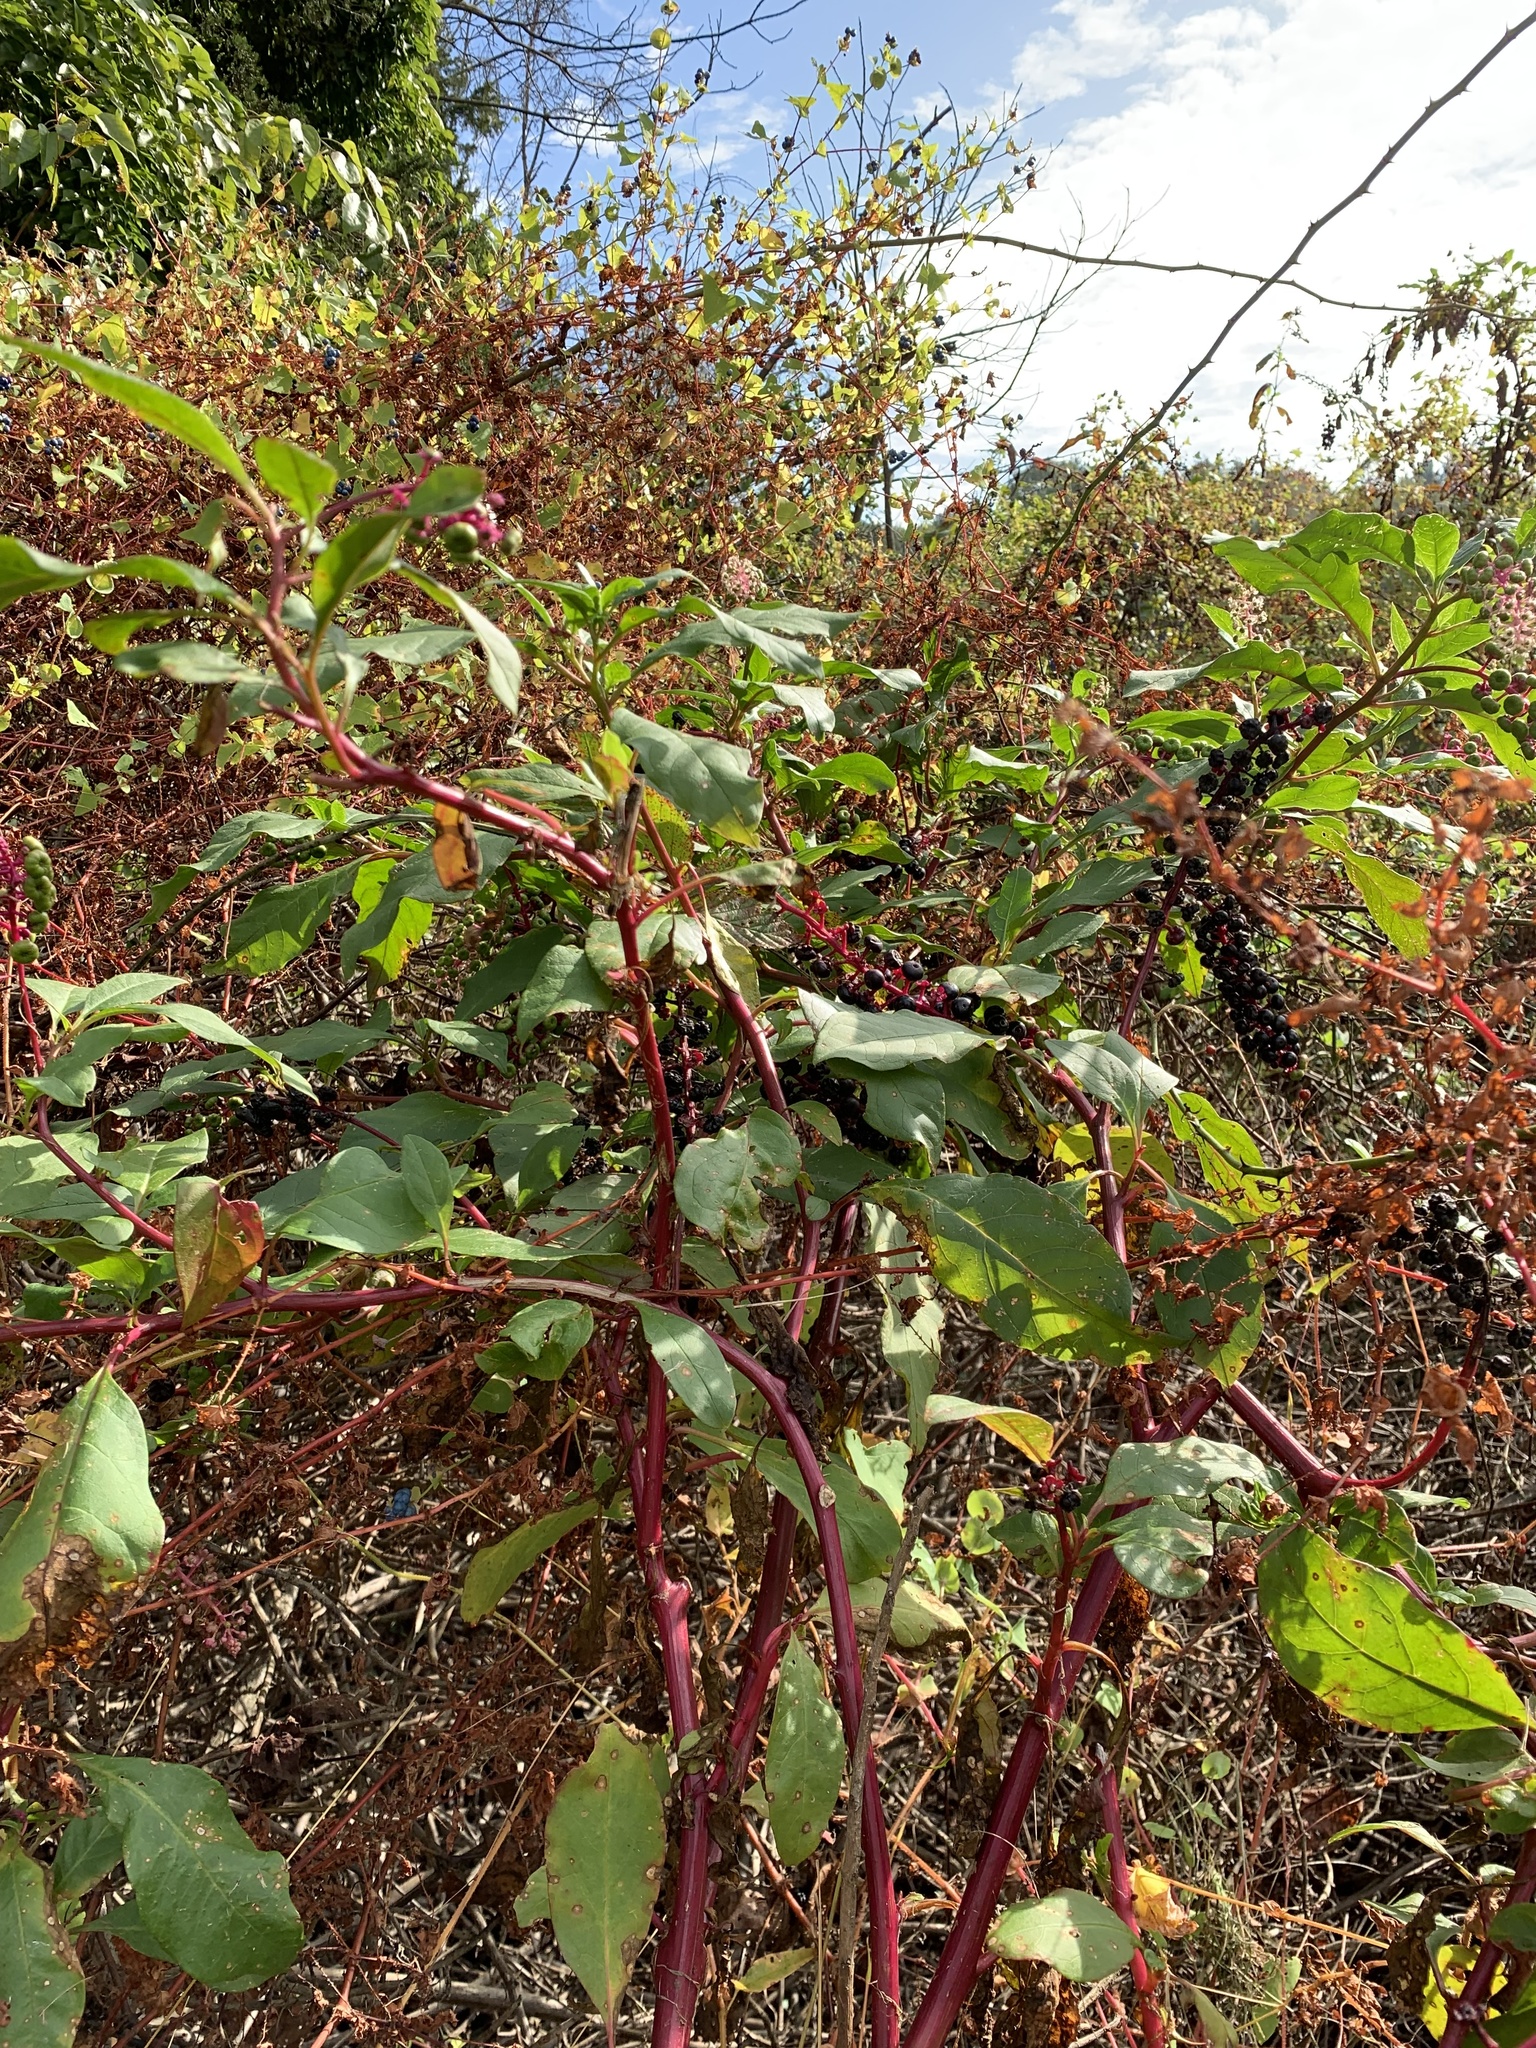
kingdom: Plantae
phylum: Tracheophyta
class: Magnoliopsida
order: Caryophyllales
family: Phytolaccaceae
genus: Phytolacca
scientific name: Phytolacca americana
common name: American pokeweed
